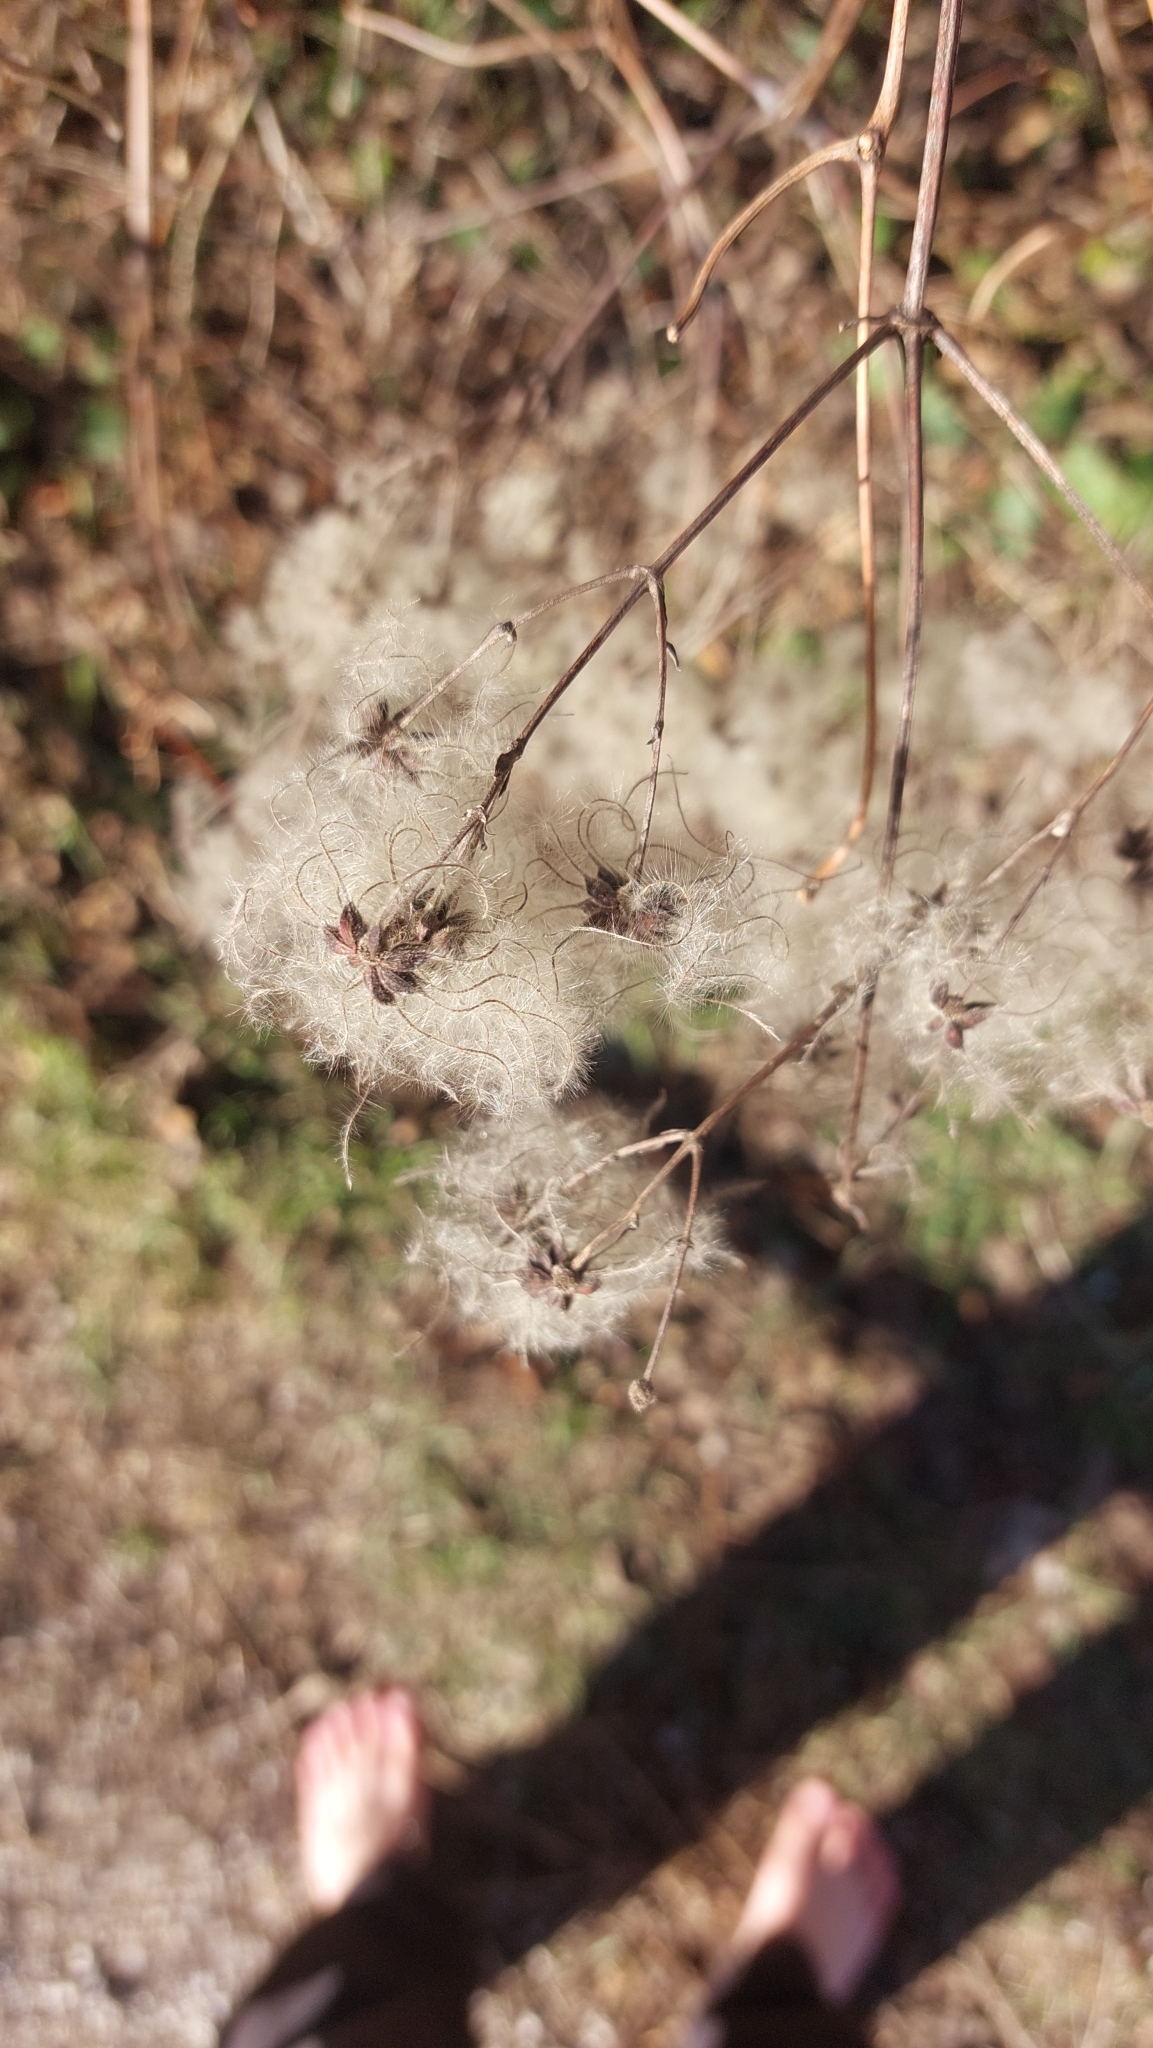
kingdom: Plantae
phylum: Tracheophyta
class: Magnoliopsida
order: Ranunculales
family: Ranunculaceae
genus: Clematis
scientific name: Clematis vitalba
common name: Evergreen clematis
